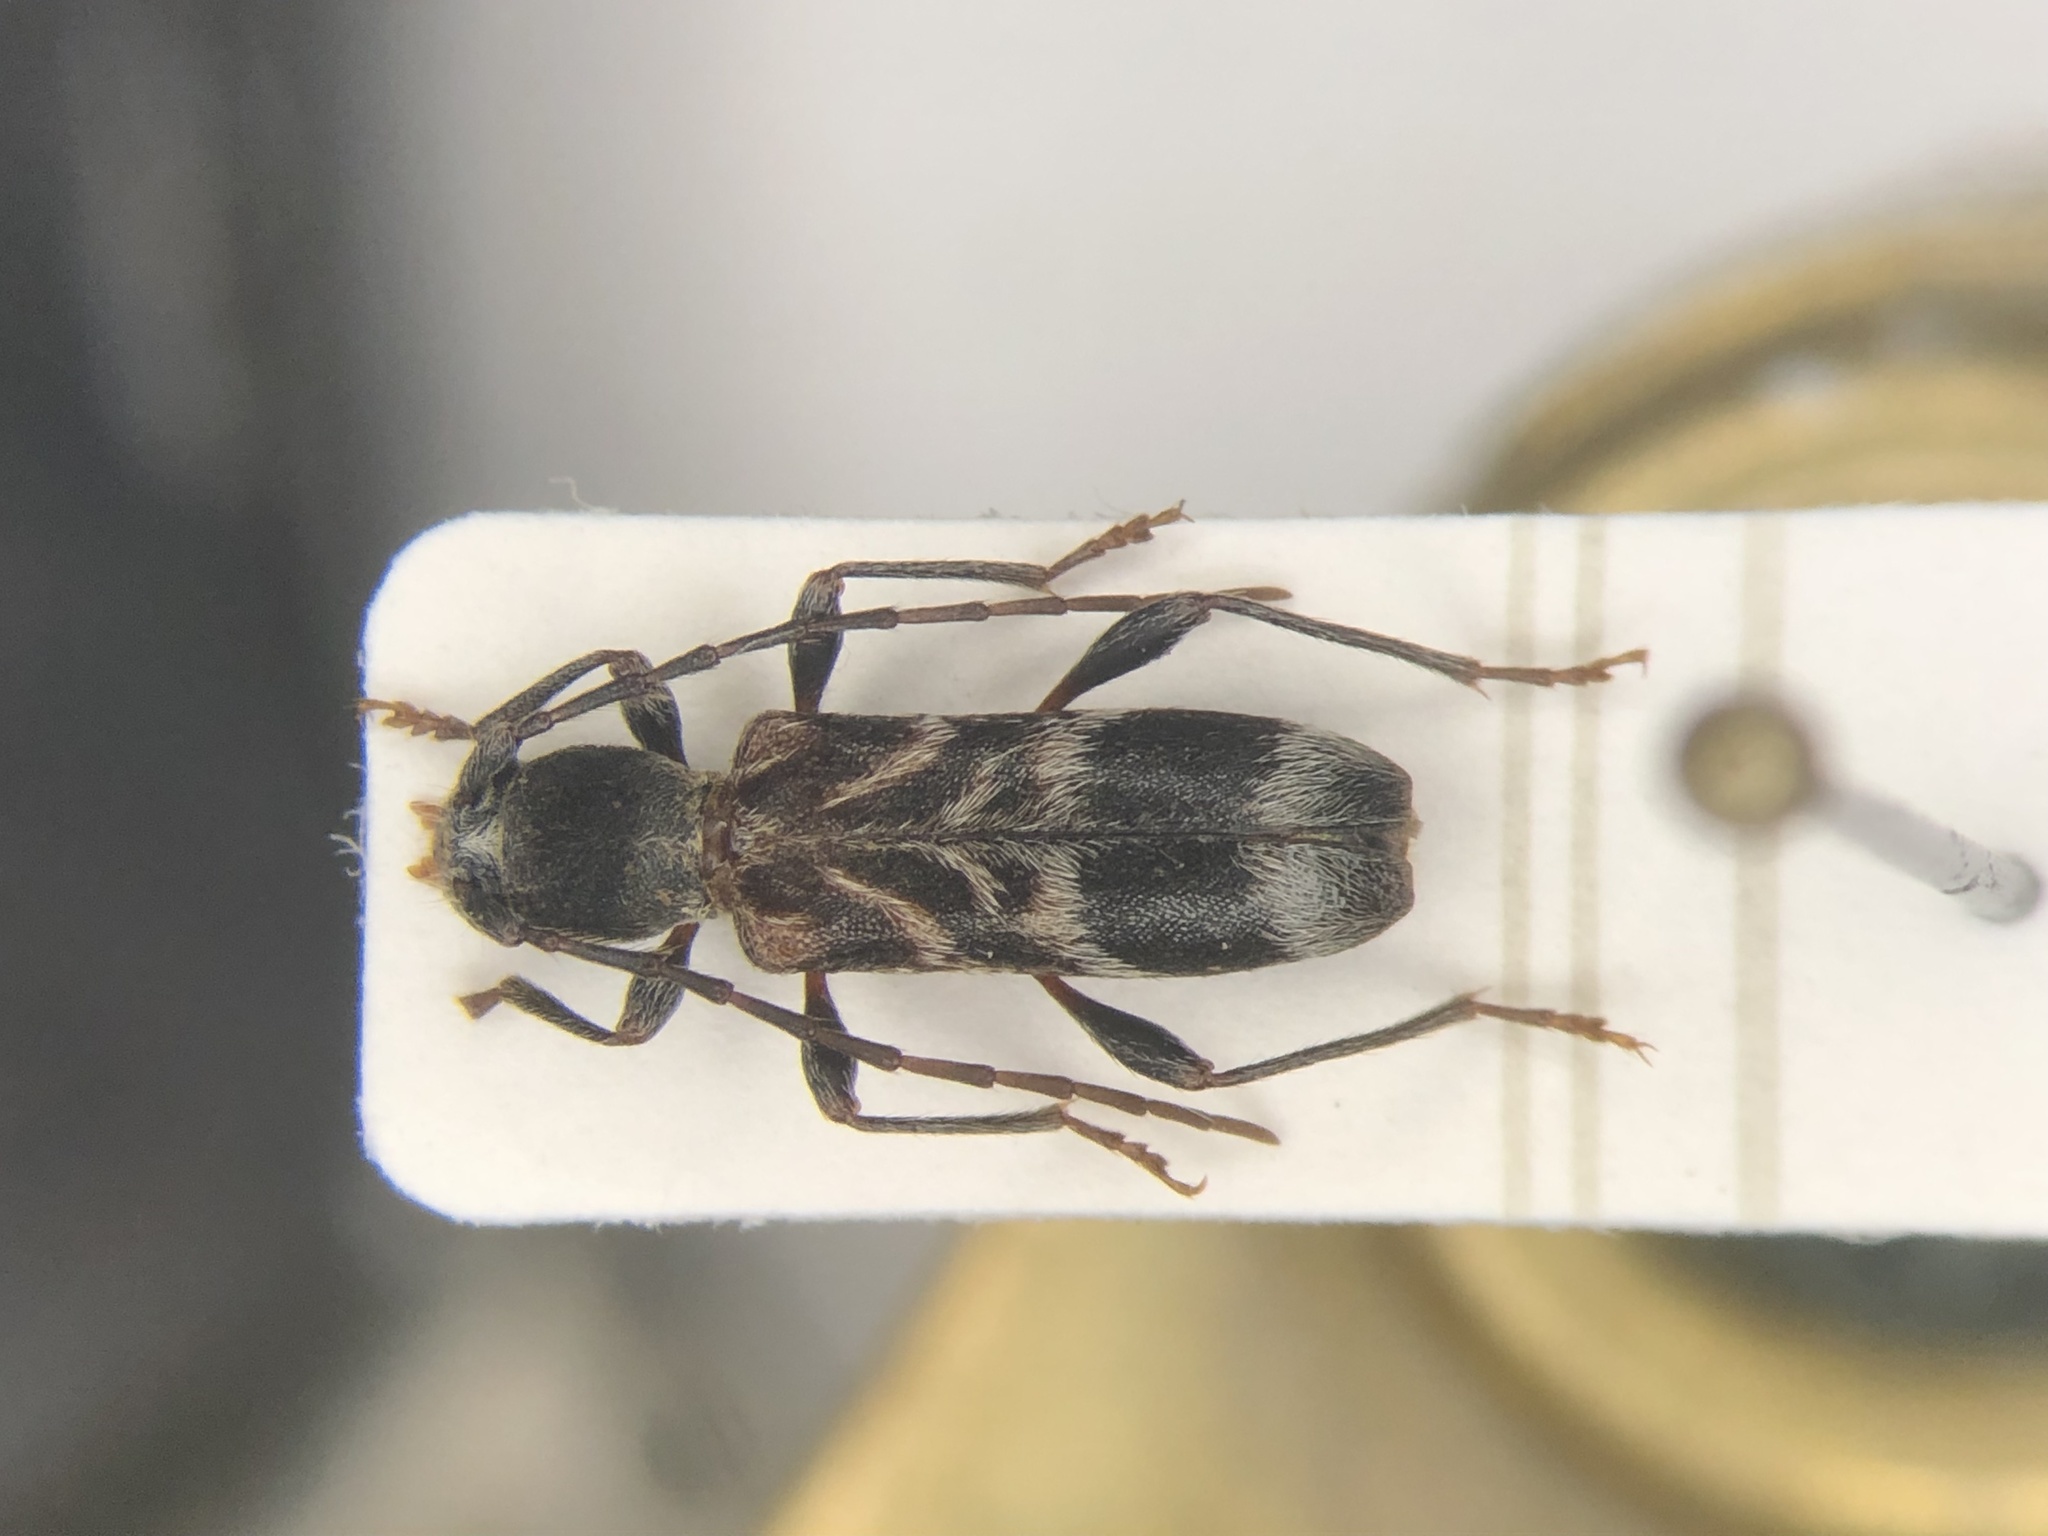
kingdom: Animalia
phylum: Arthropoda
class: Insecta
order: Coleoptera
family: Cerambycidae
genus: Oligoenoplus
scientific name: Oligoenoplus compressicollis
